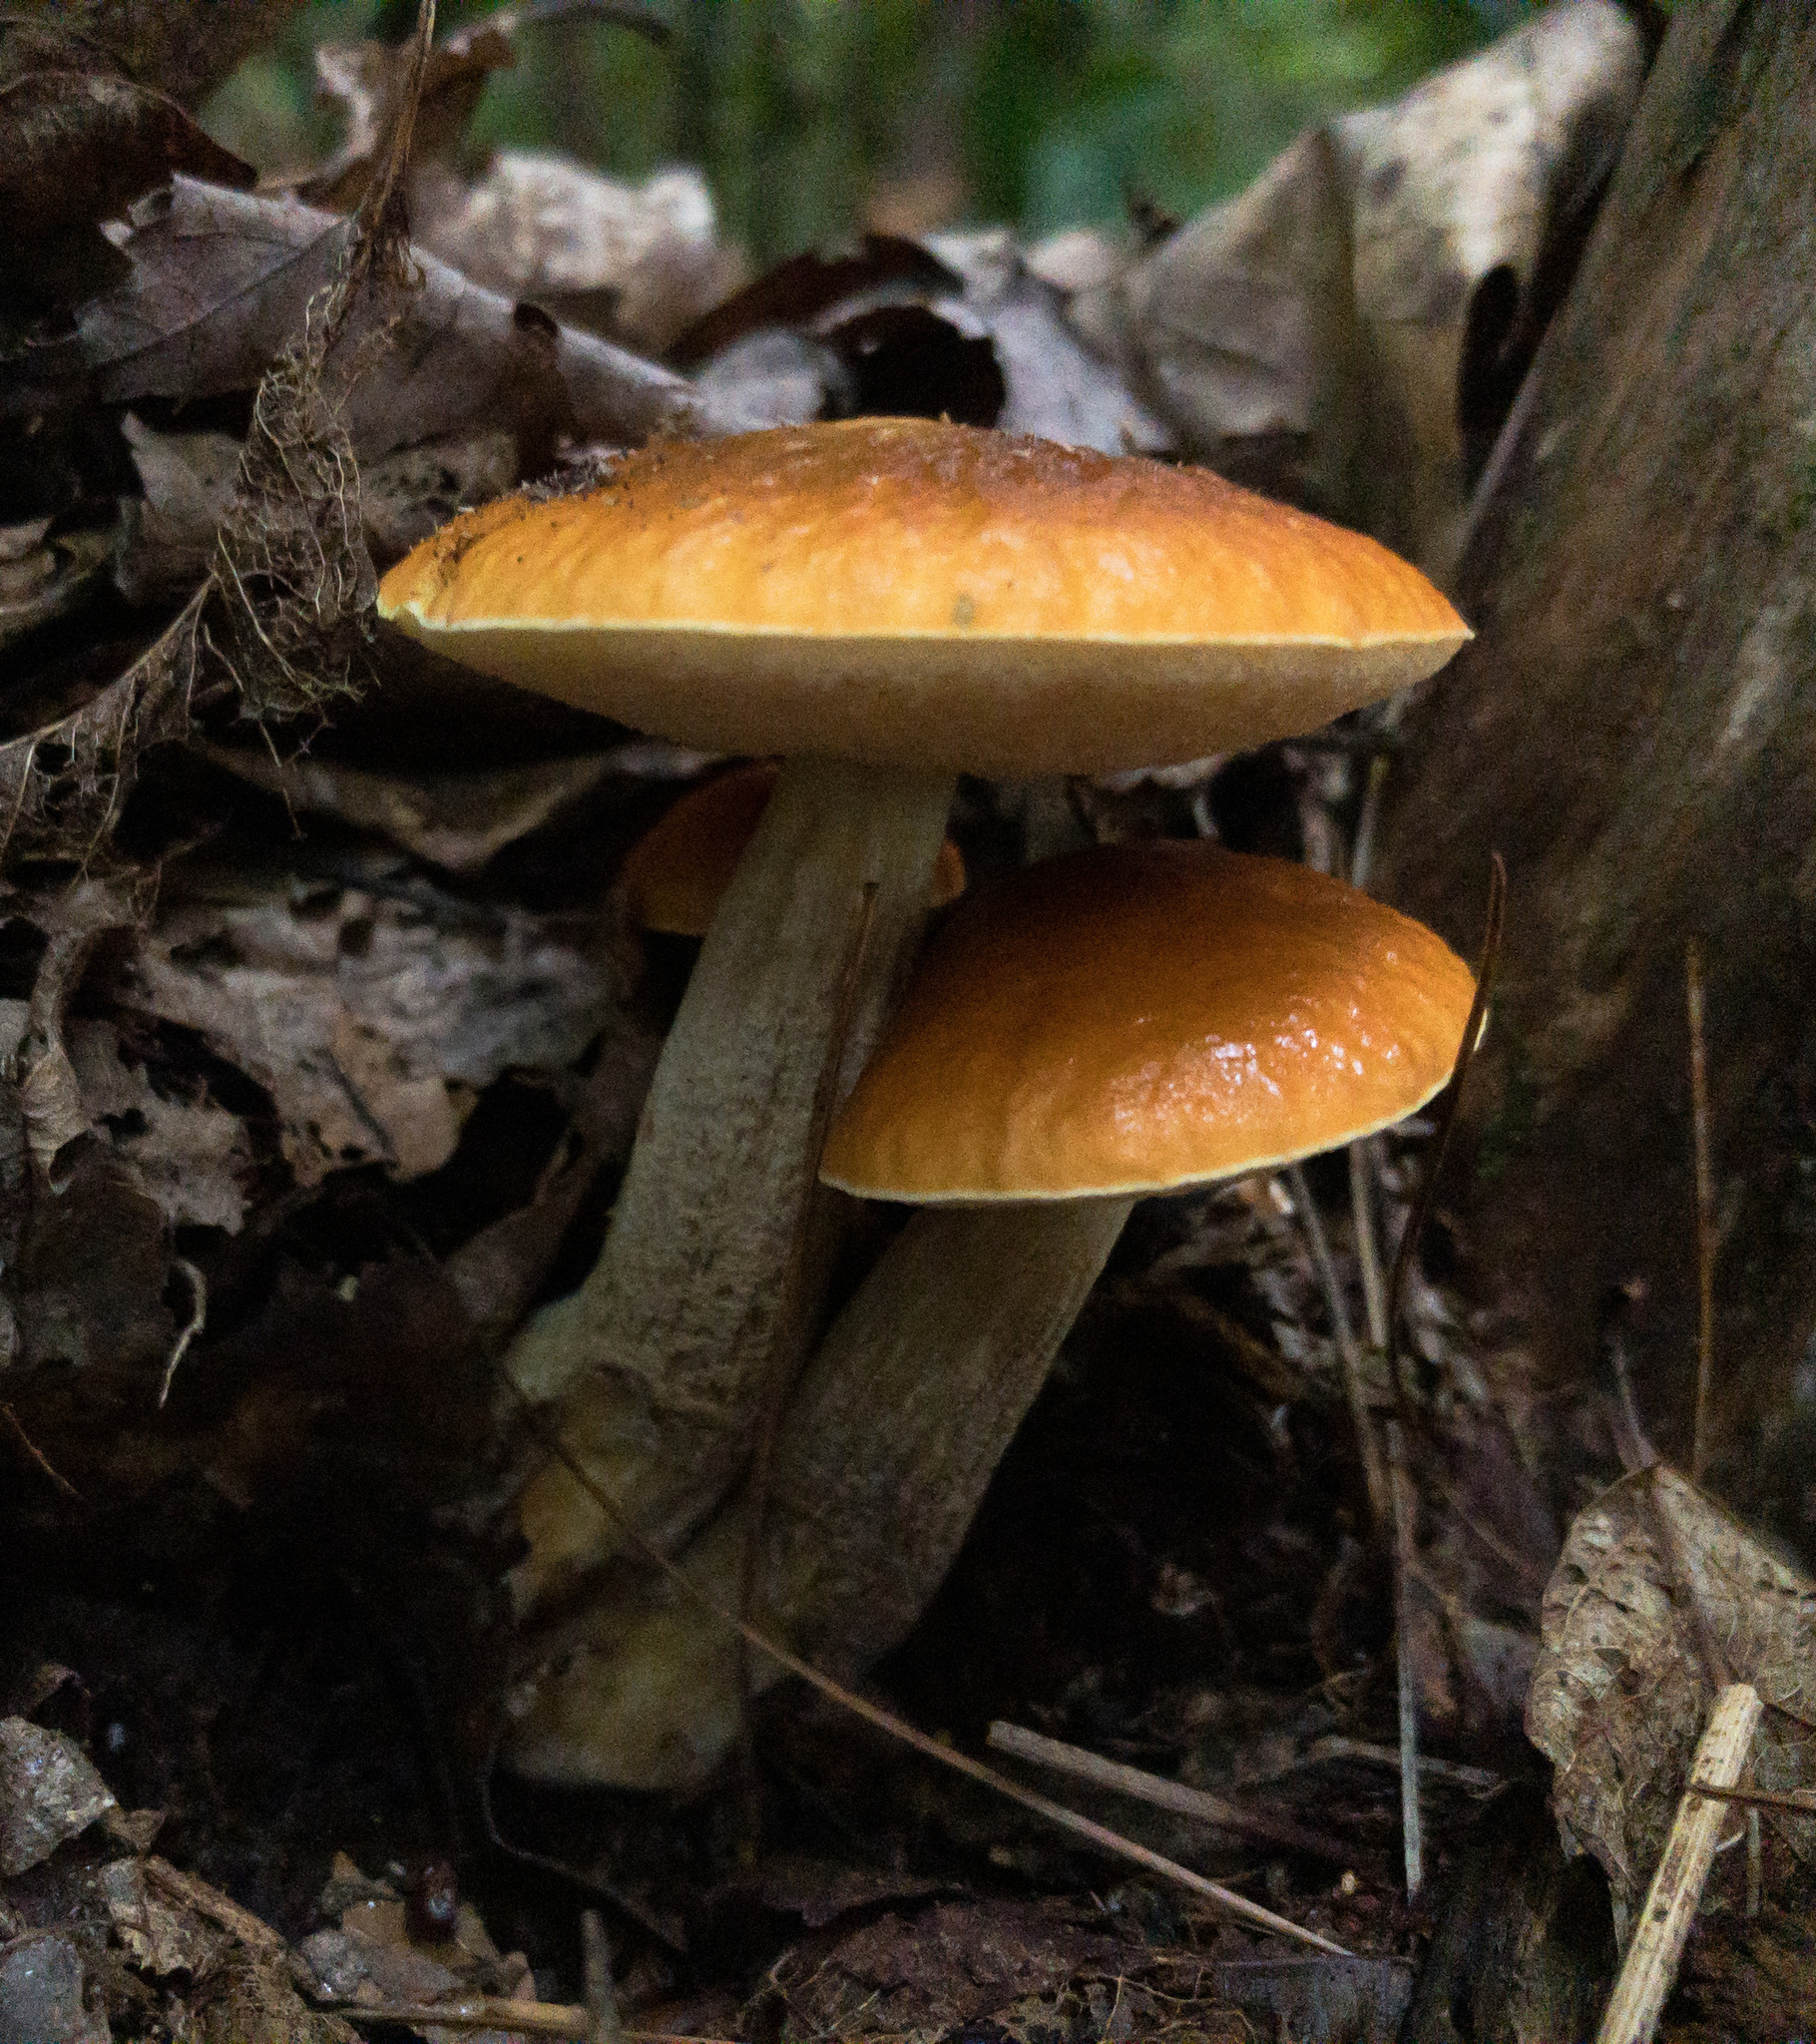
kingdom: Fungi
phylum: Basidiomycota
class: Agaricomycetes
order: Boletales
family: Boletaceae
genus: Leccinum
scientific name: Leccinum longicurvipes
